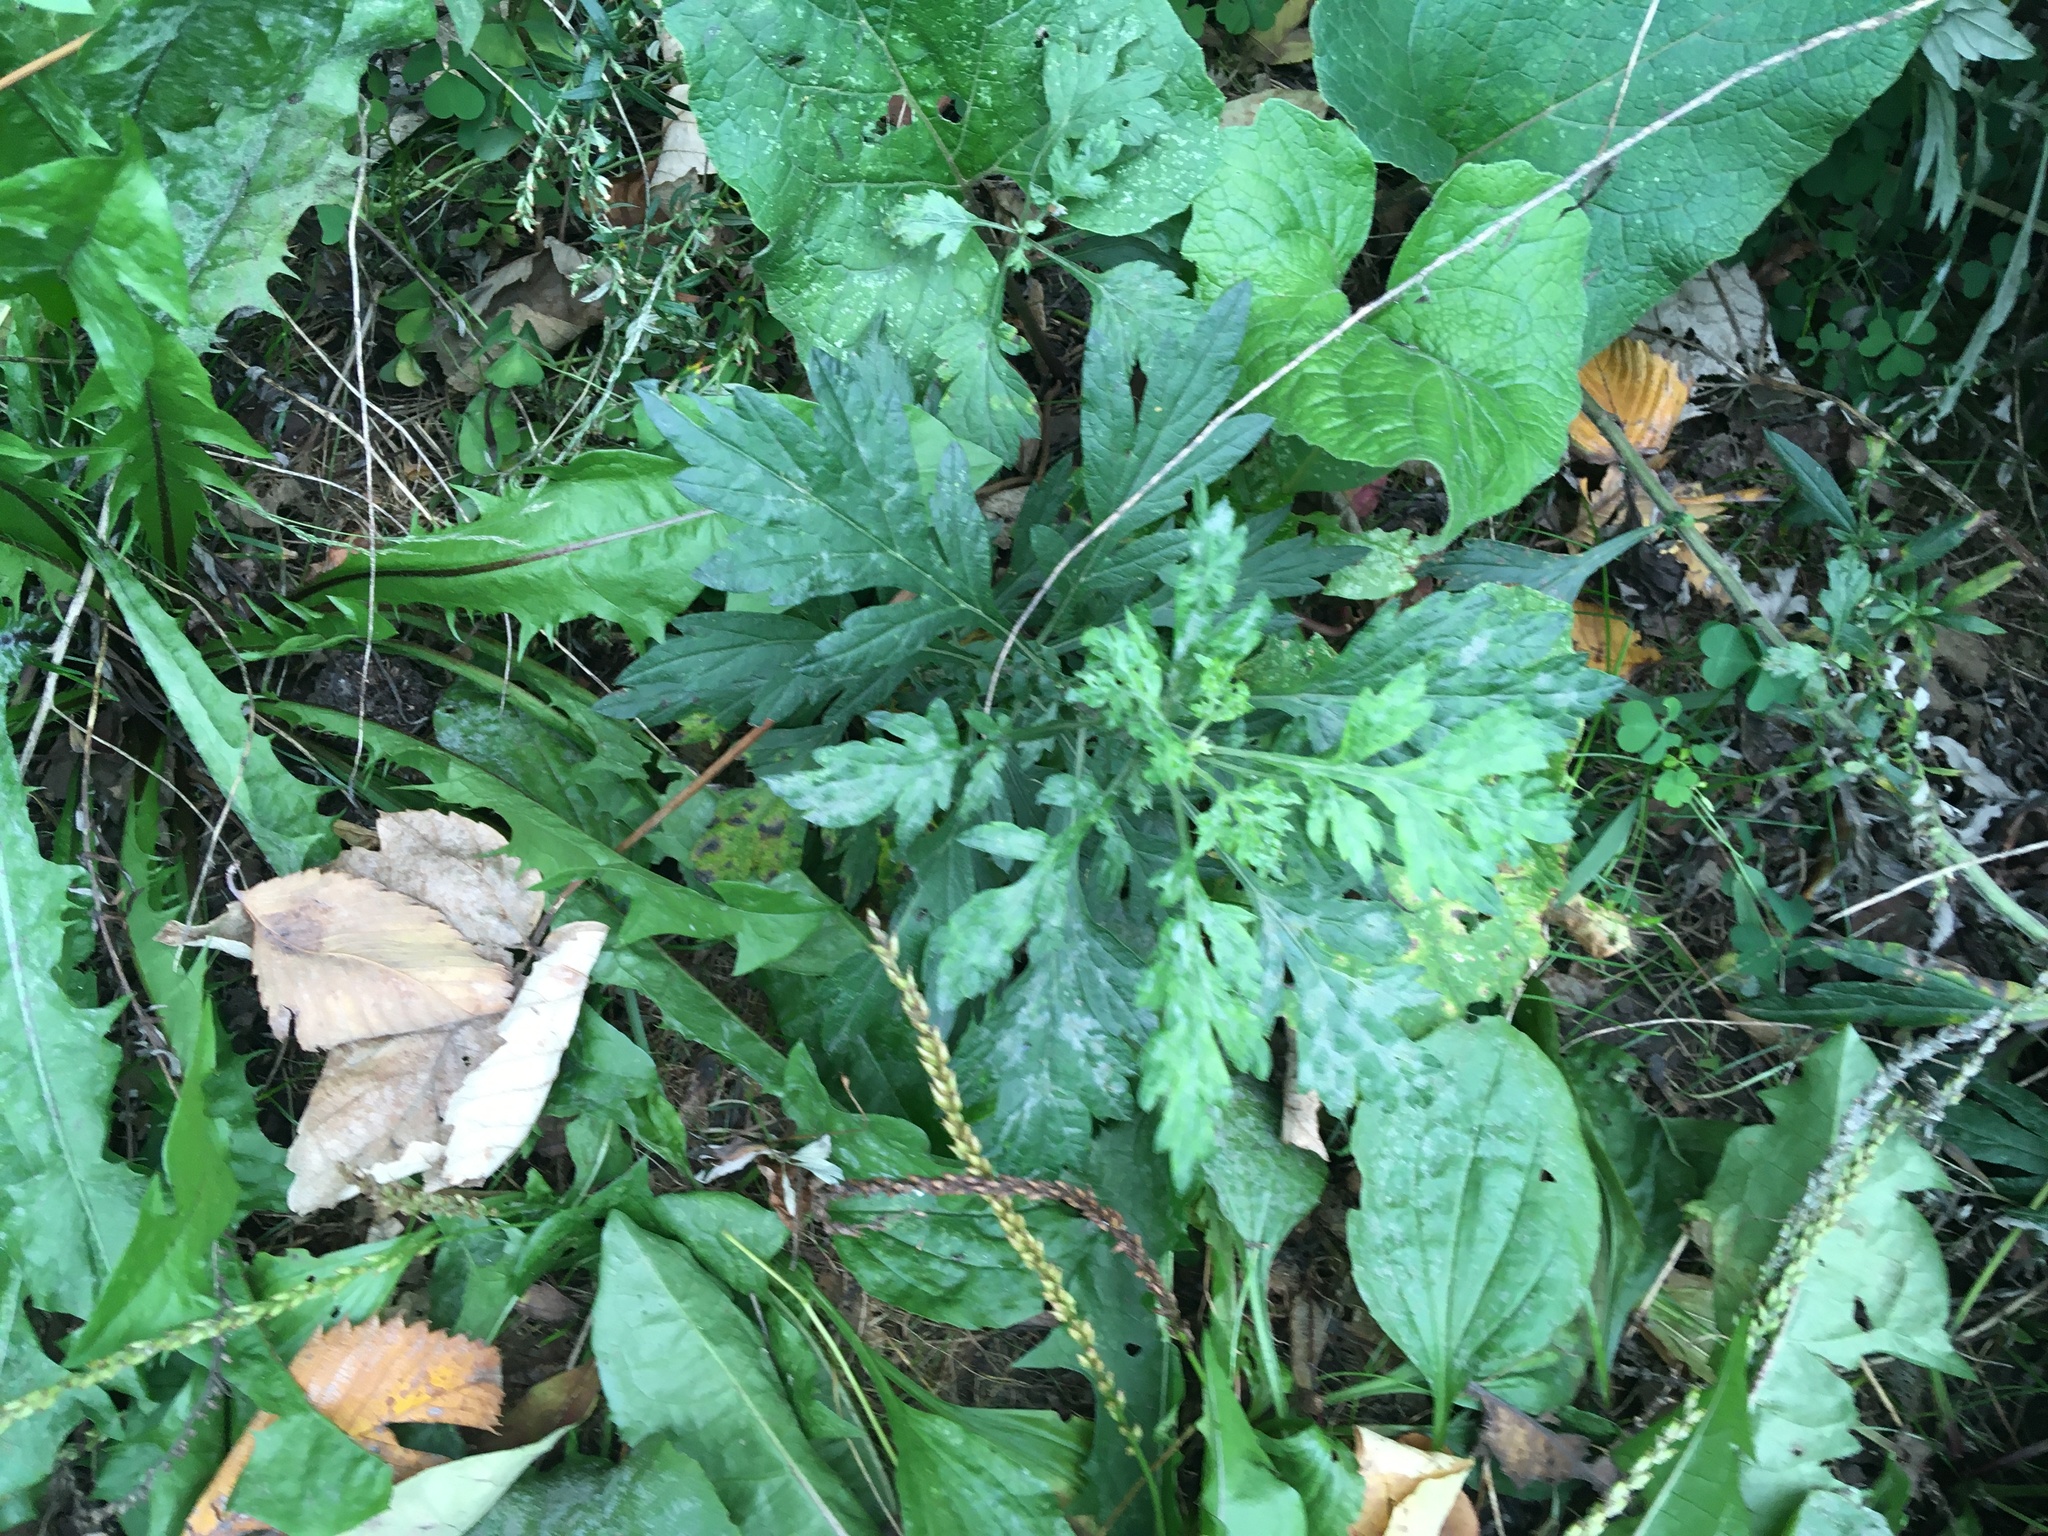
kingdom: Plantae
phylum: Tracheophyta
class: Magnoliopsida
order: Asterales
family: Asteraceae
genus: Artemisia
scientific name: Artemisia vulgaris
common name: Mugwort
